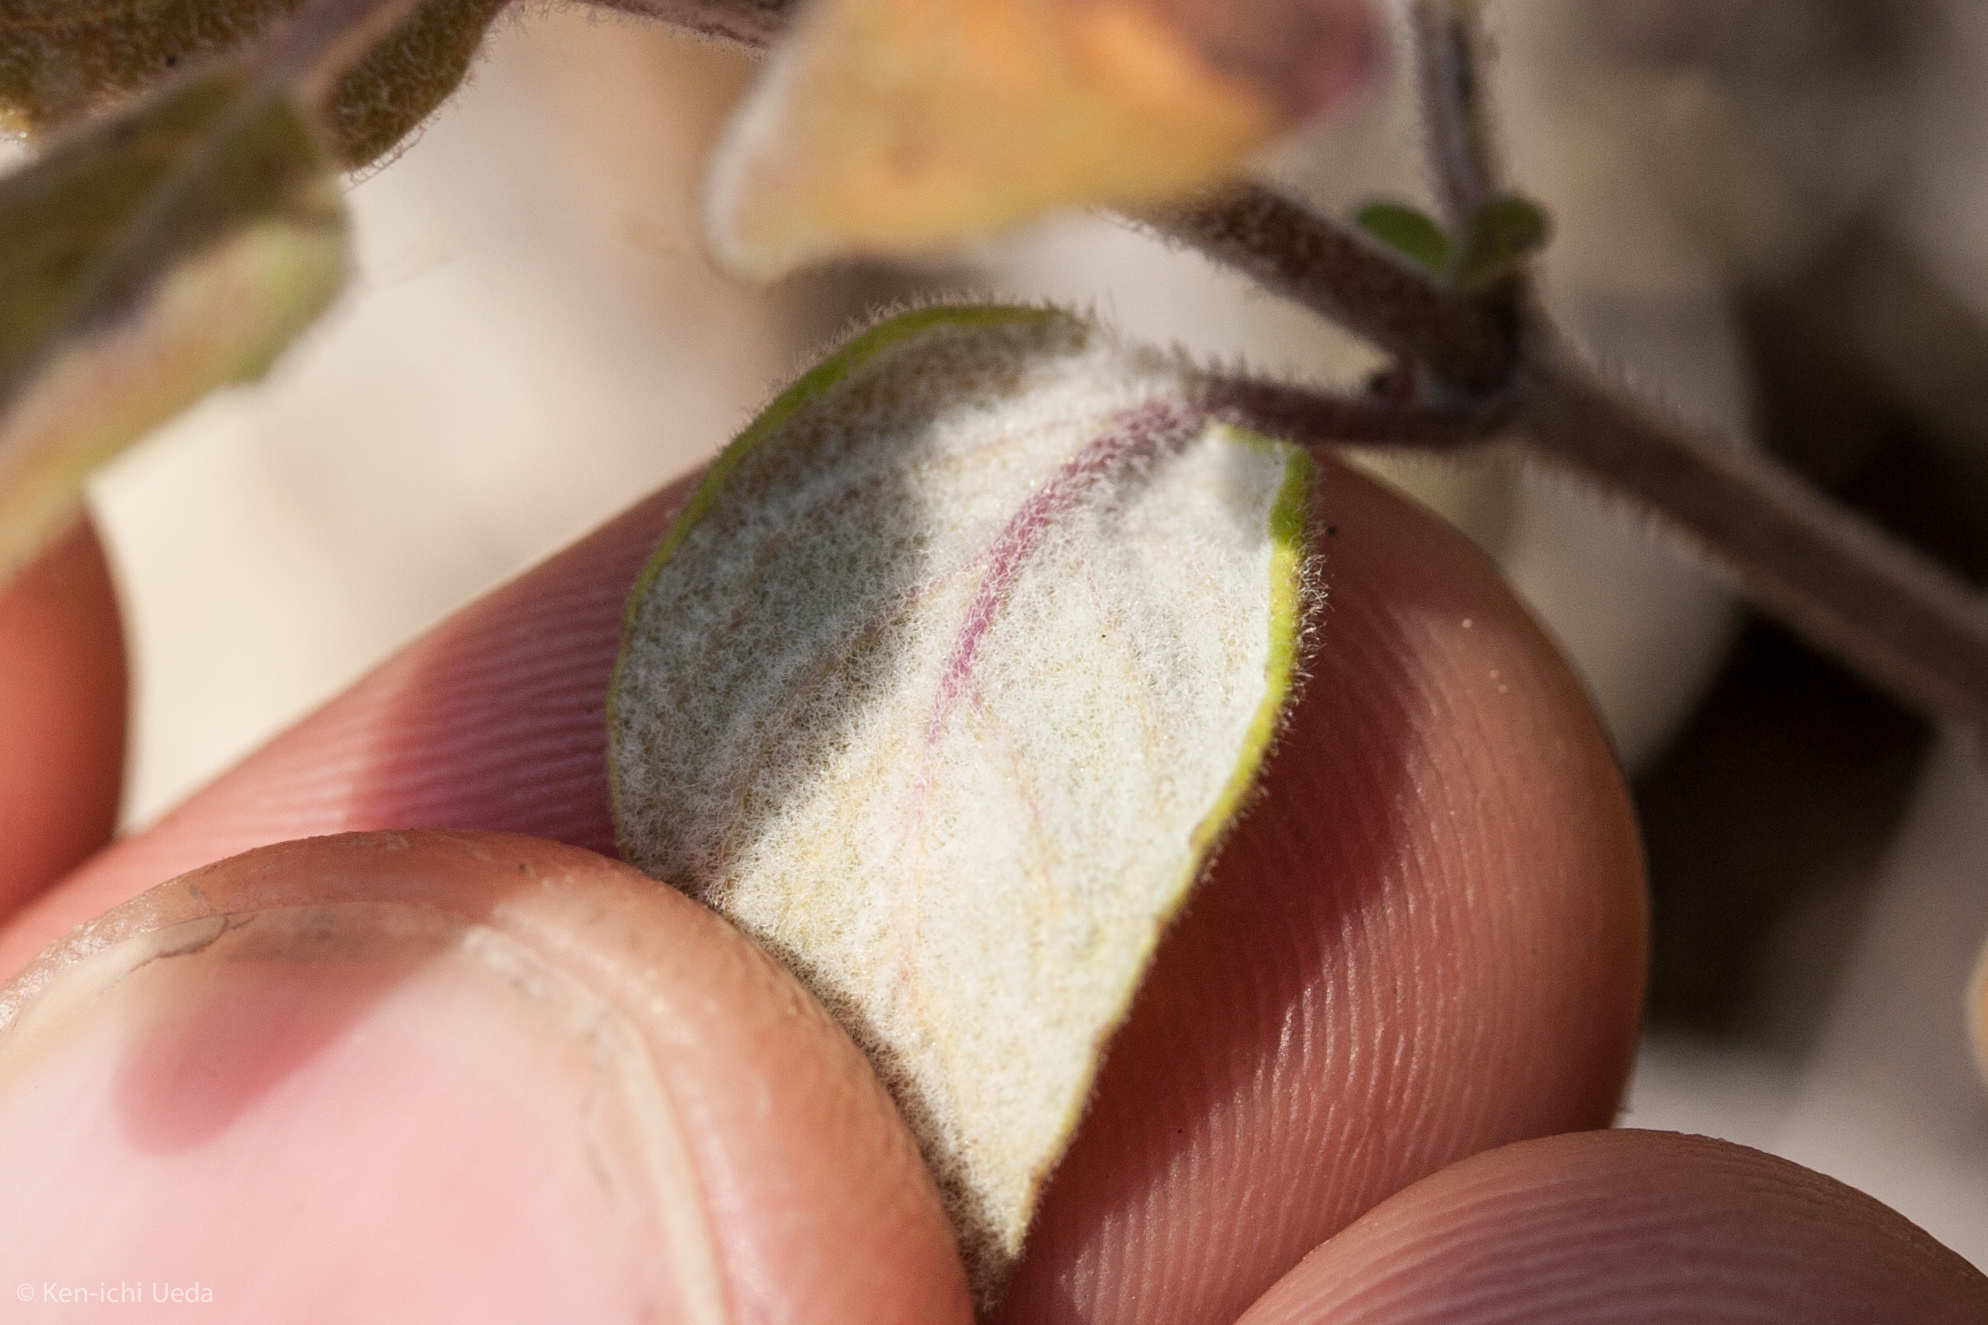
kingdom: Plantae
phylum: Tracheophyta
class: Magnoliopsida
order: Lamiales
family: Lamiaceae
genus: Monardella
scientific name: Monardella odoratissima
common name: Pacific monardella
